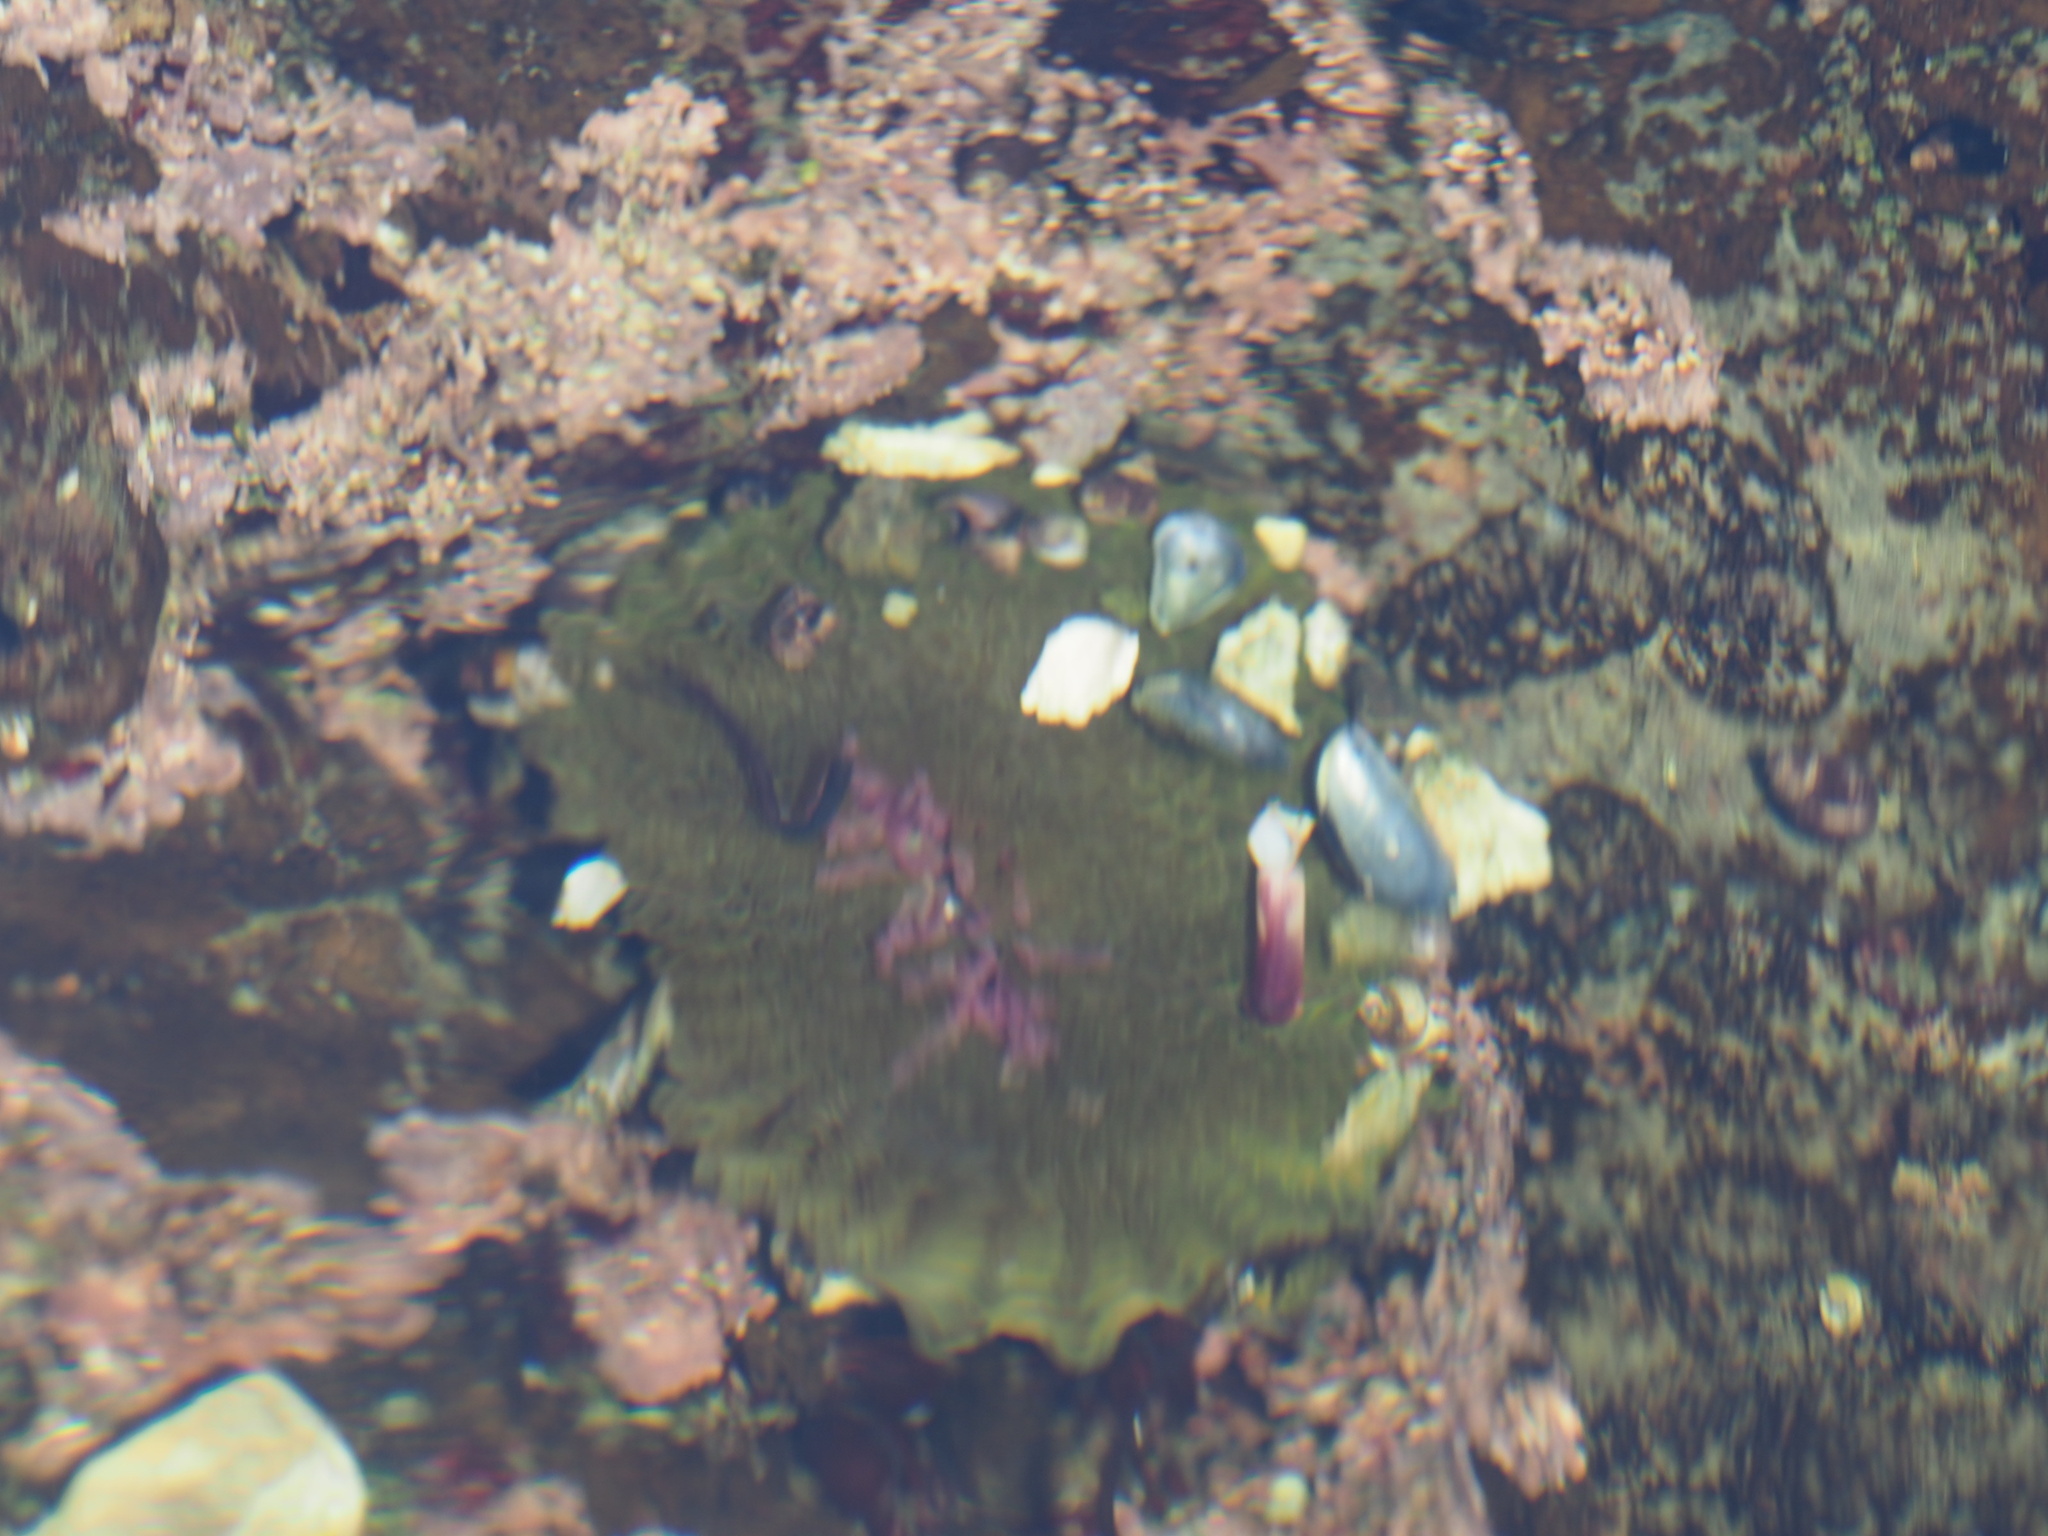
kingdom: Animalia
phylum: Cnidaria
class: Anthozoa
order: Actiniaria
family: Actiniidae
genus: Anthopleura
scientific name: Anthopleura elegantissima
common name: Clonal anemone
